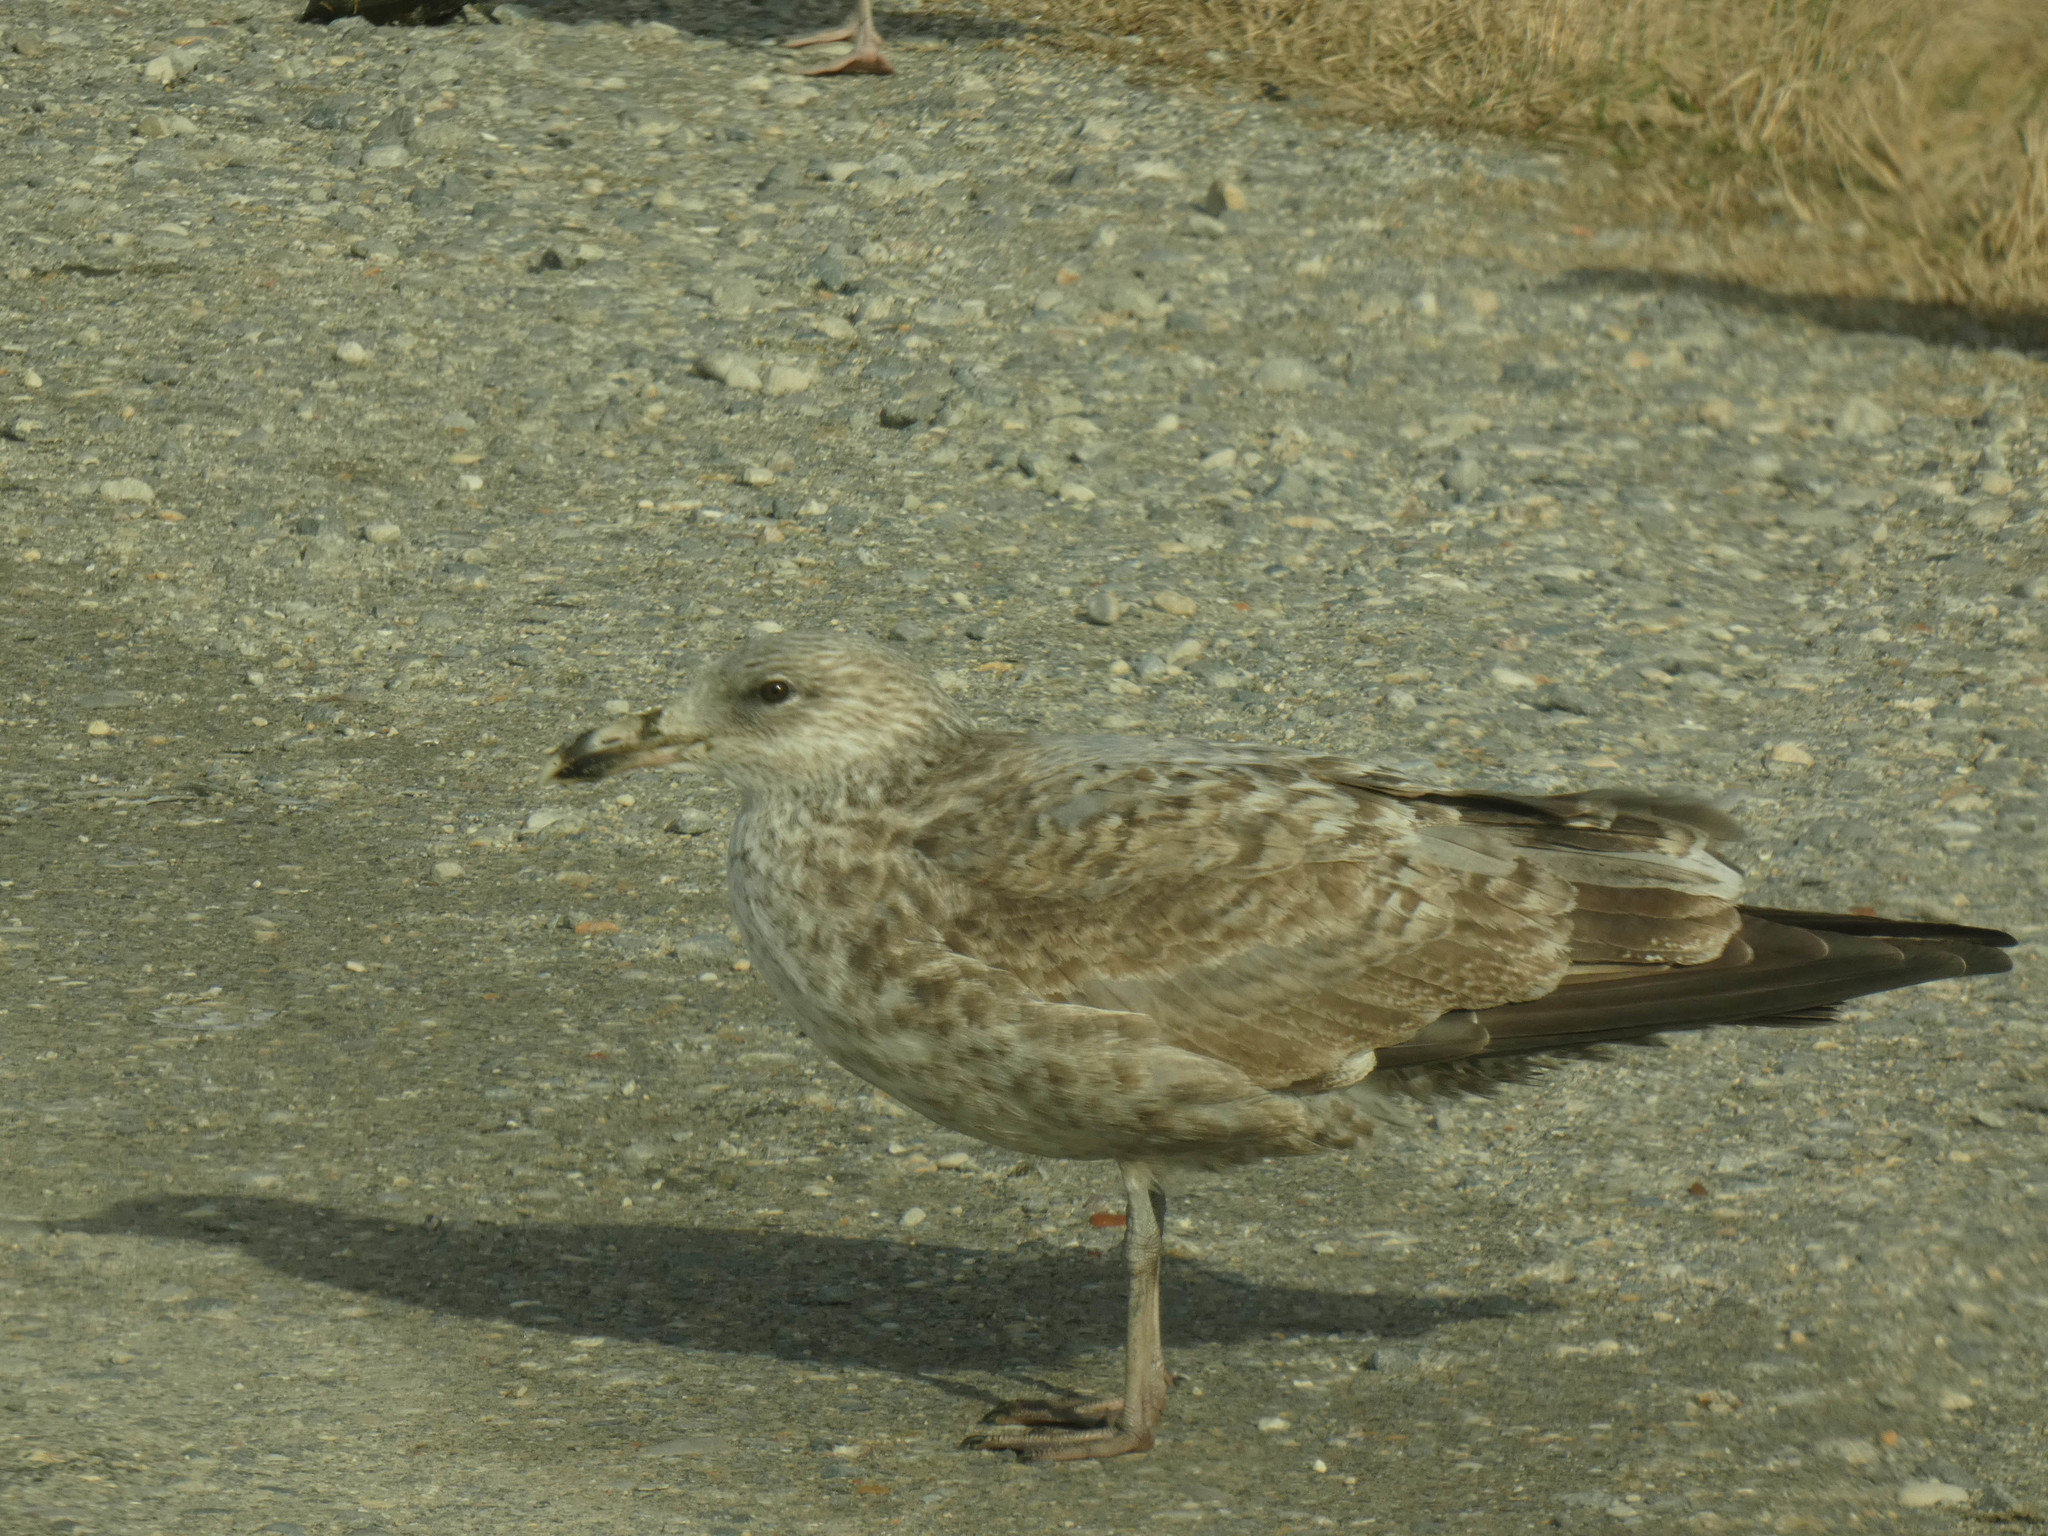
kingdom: Animalia
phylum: Chordata
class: Aves
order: Charadriiformes
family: Laridae
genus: Larus
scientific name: Larus argentatus
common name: Herring gull
